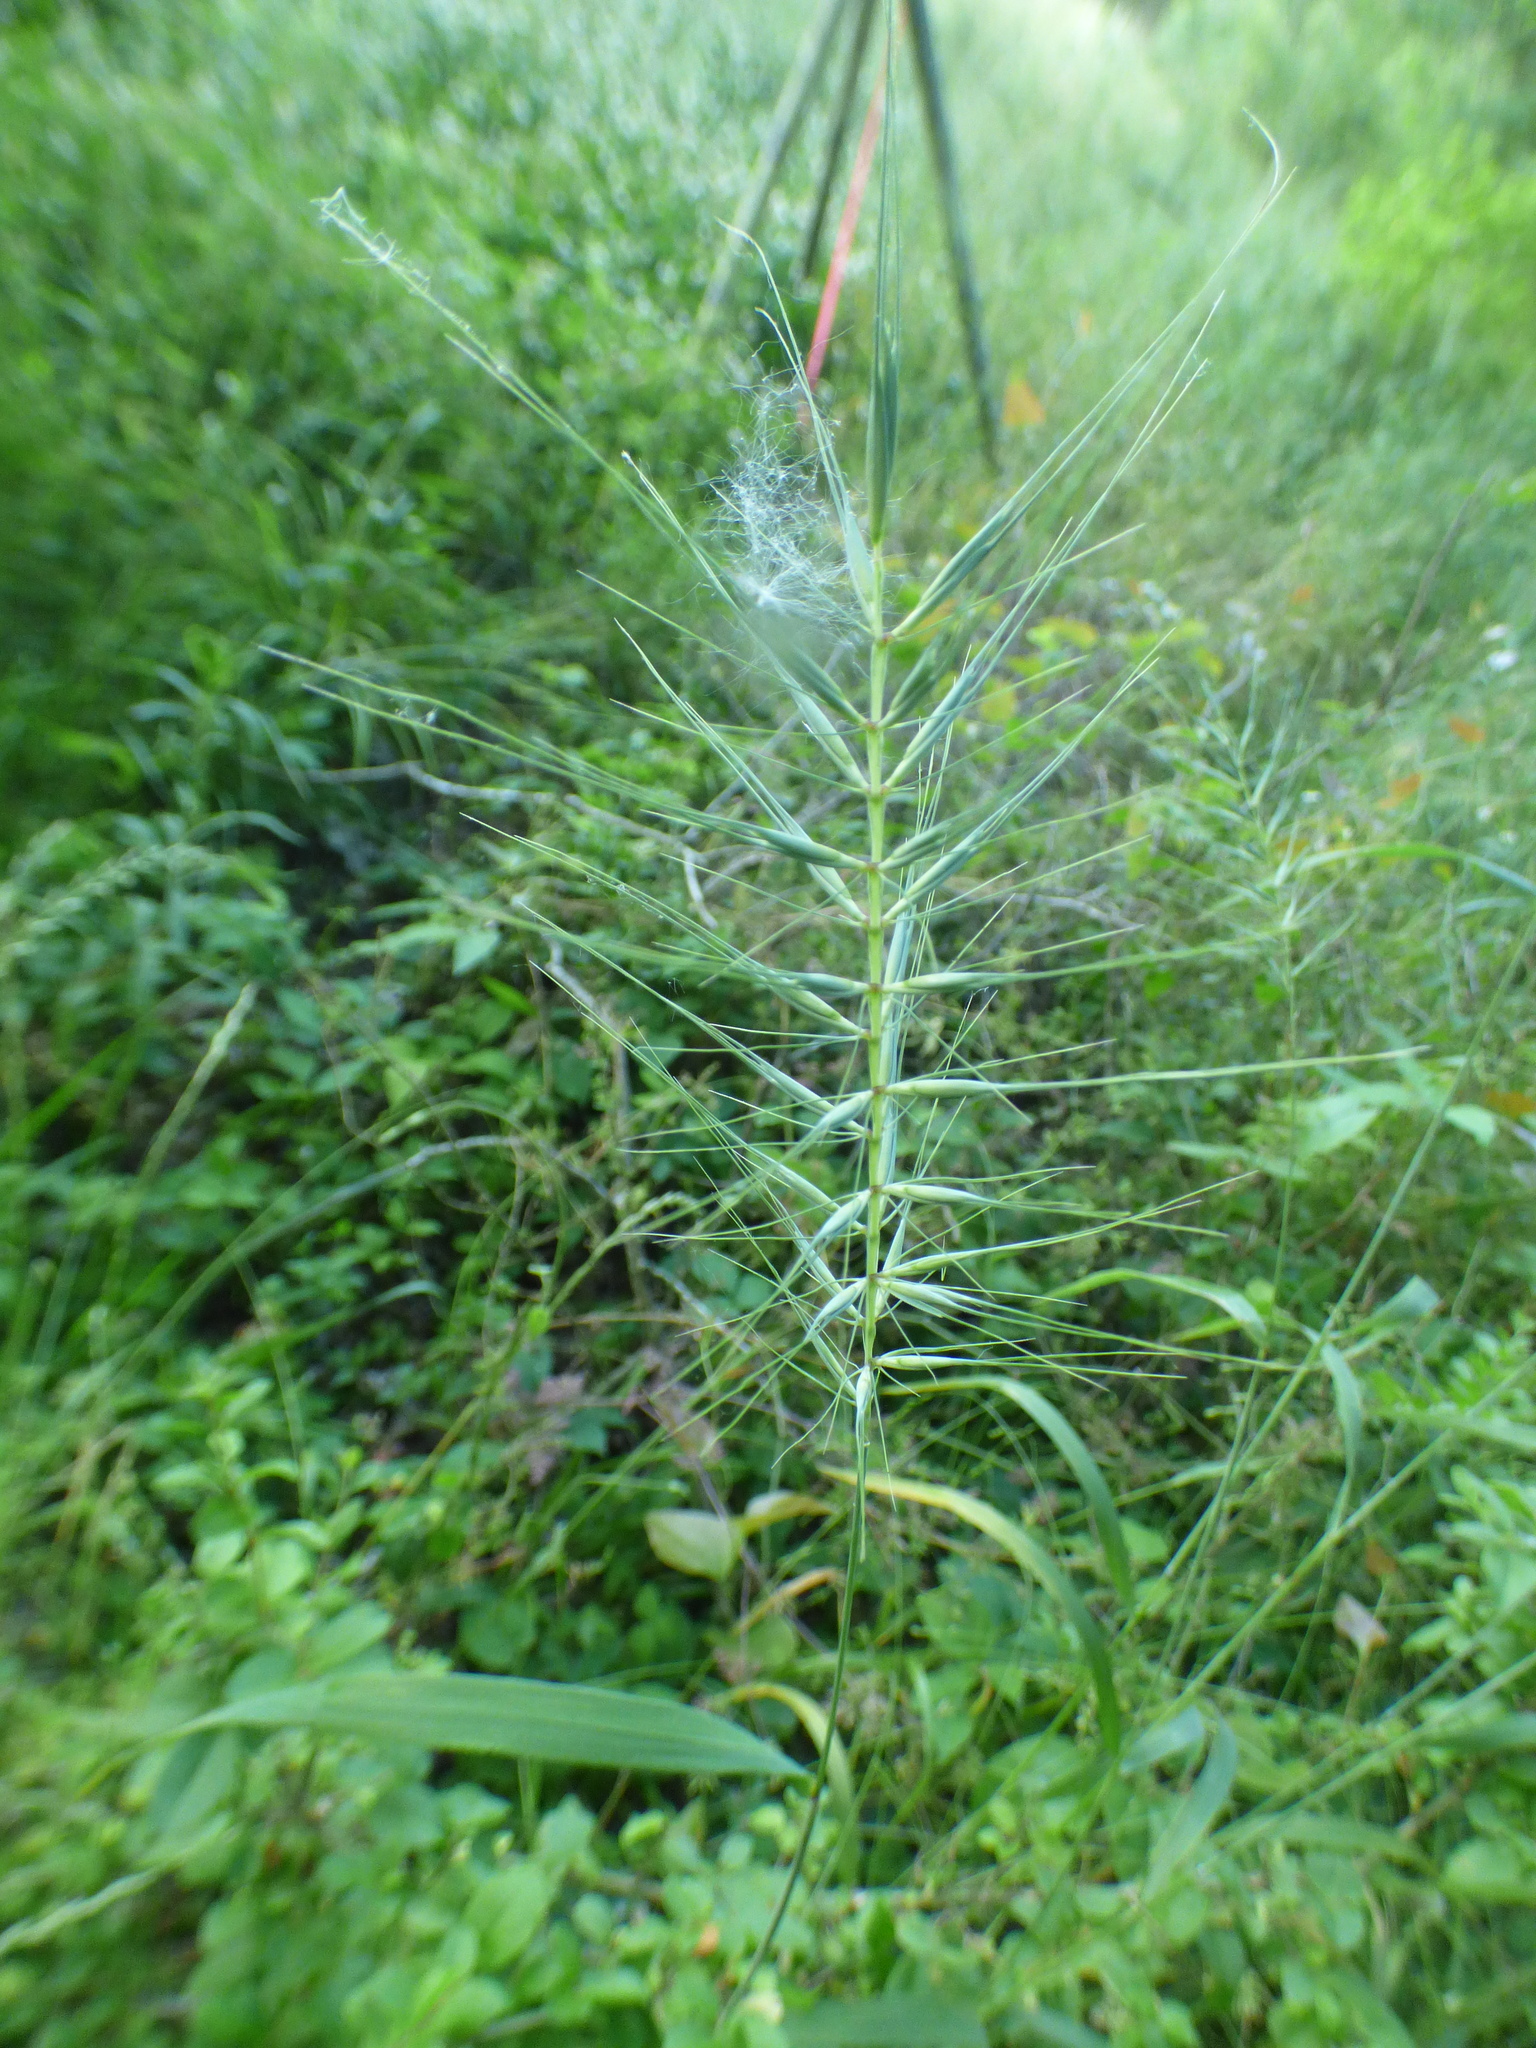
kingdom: Plantae
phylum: Tracheophyta
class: Liliopsida
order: Poales
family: Poaceae
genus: Elymus
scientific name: Elymus hystrix
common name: Bottlebrush grass
